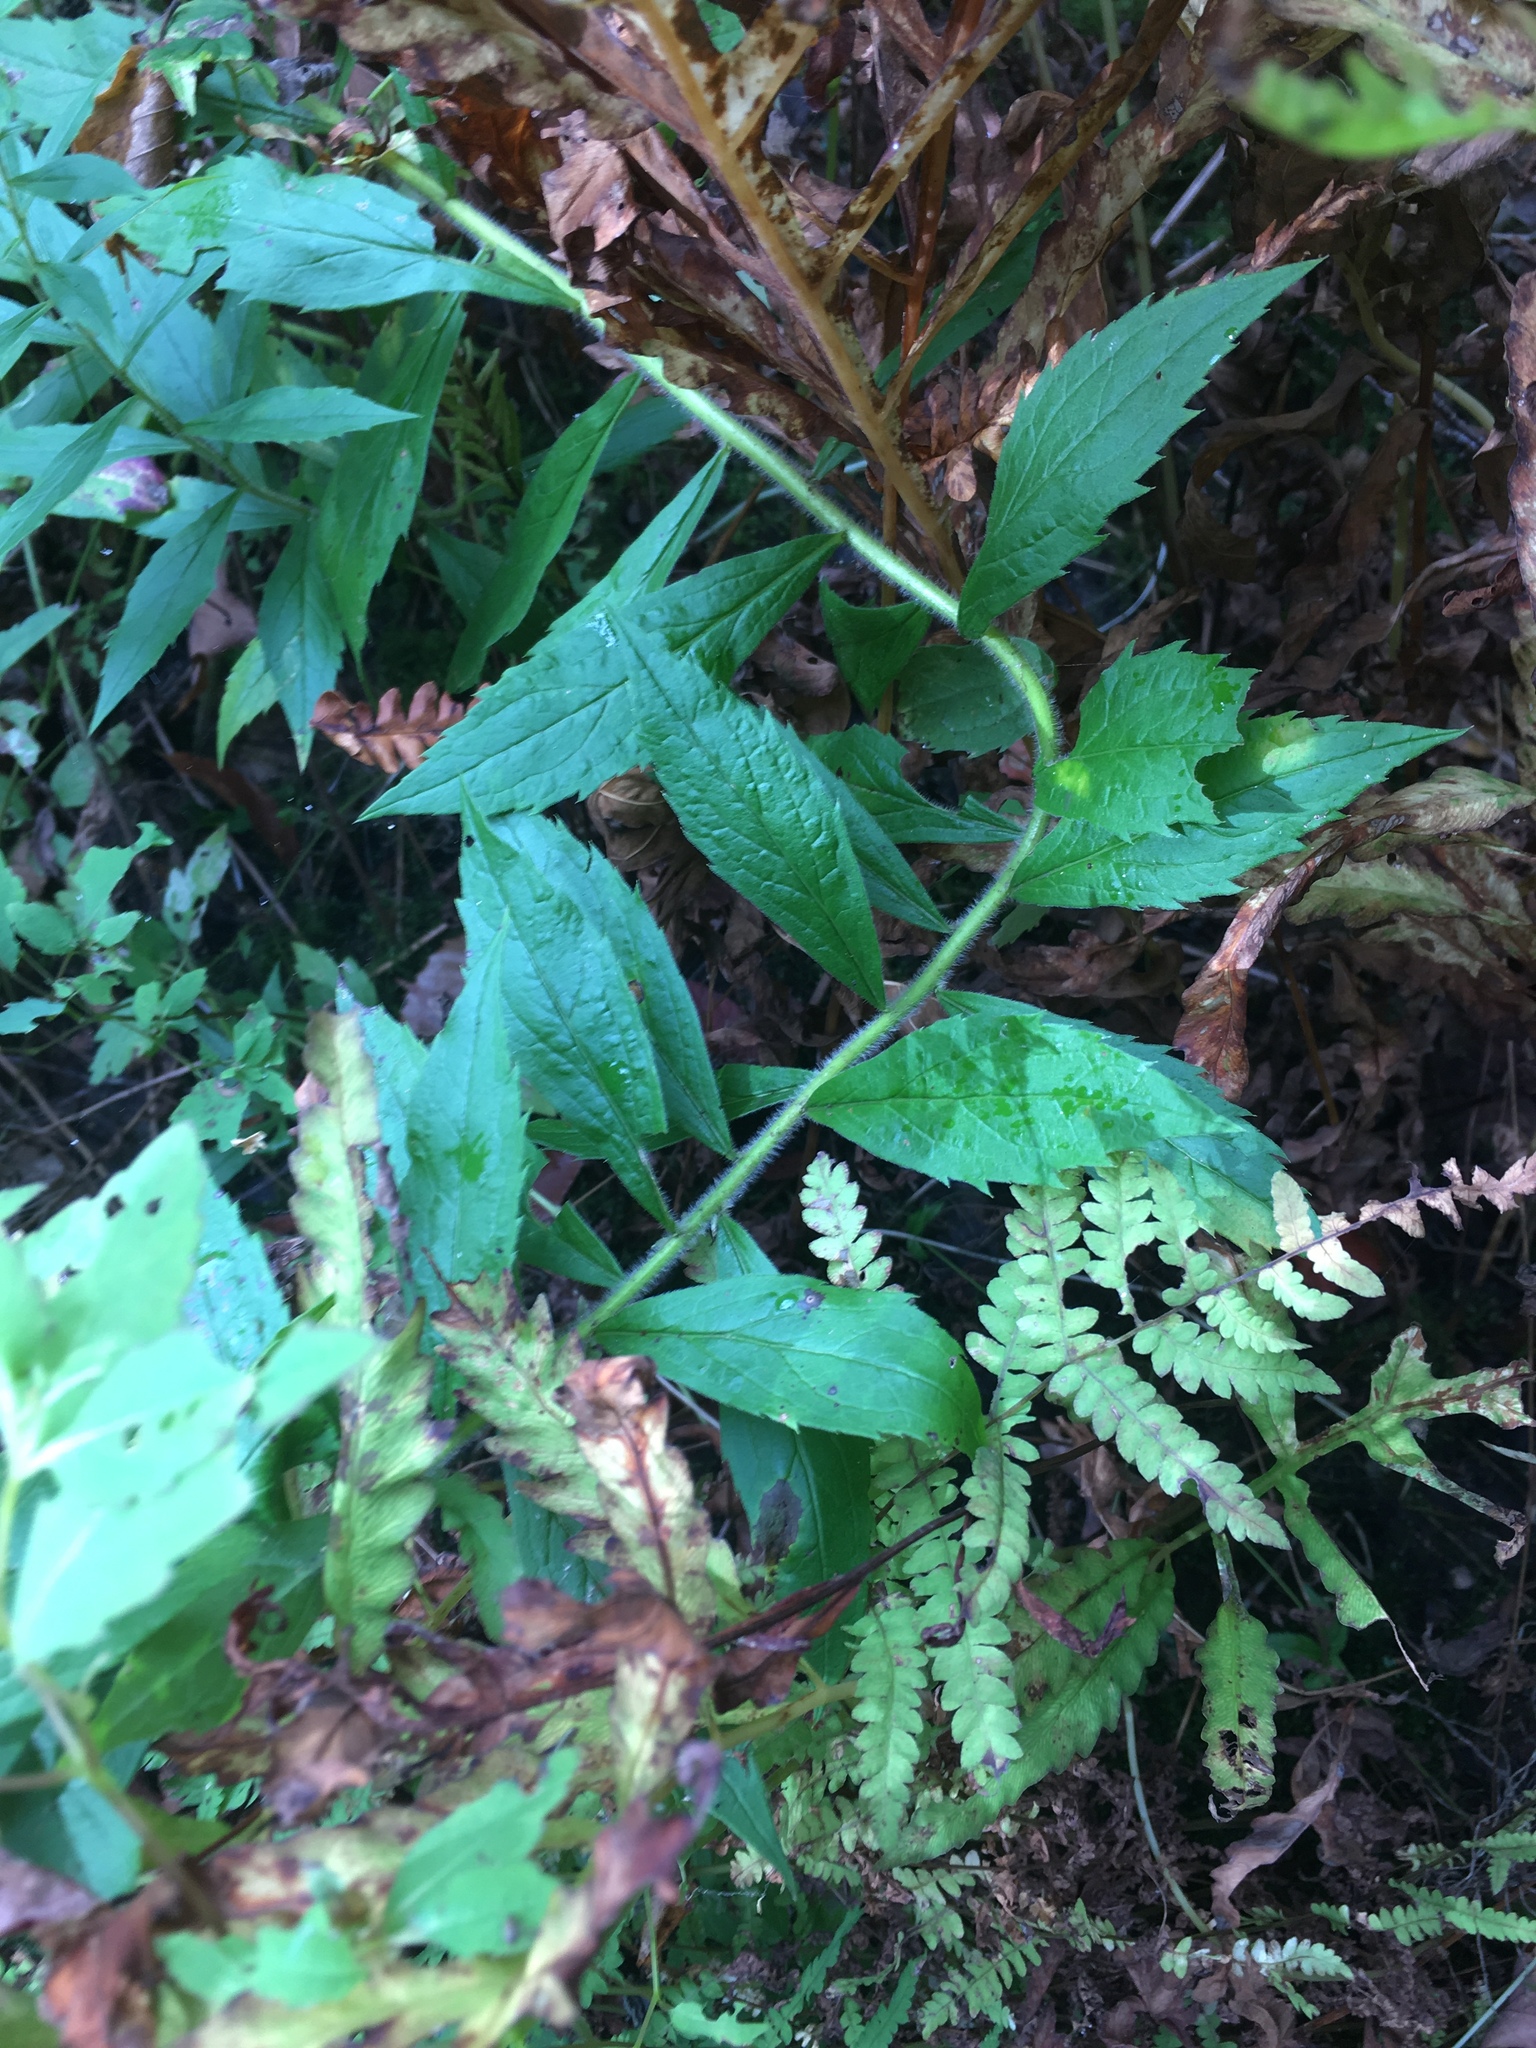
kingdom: Plantae
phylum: Tracheophyta
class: Magnoliopsida
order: Asterales
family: Asteraceae
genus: Solidago
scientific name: Solidago rugosa
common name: Rough-stemmed goldenrod
